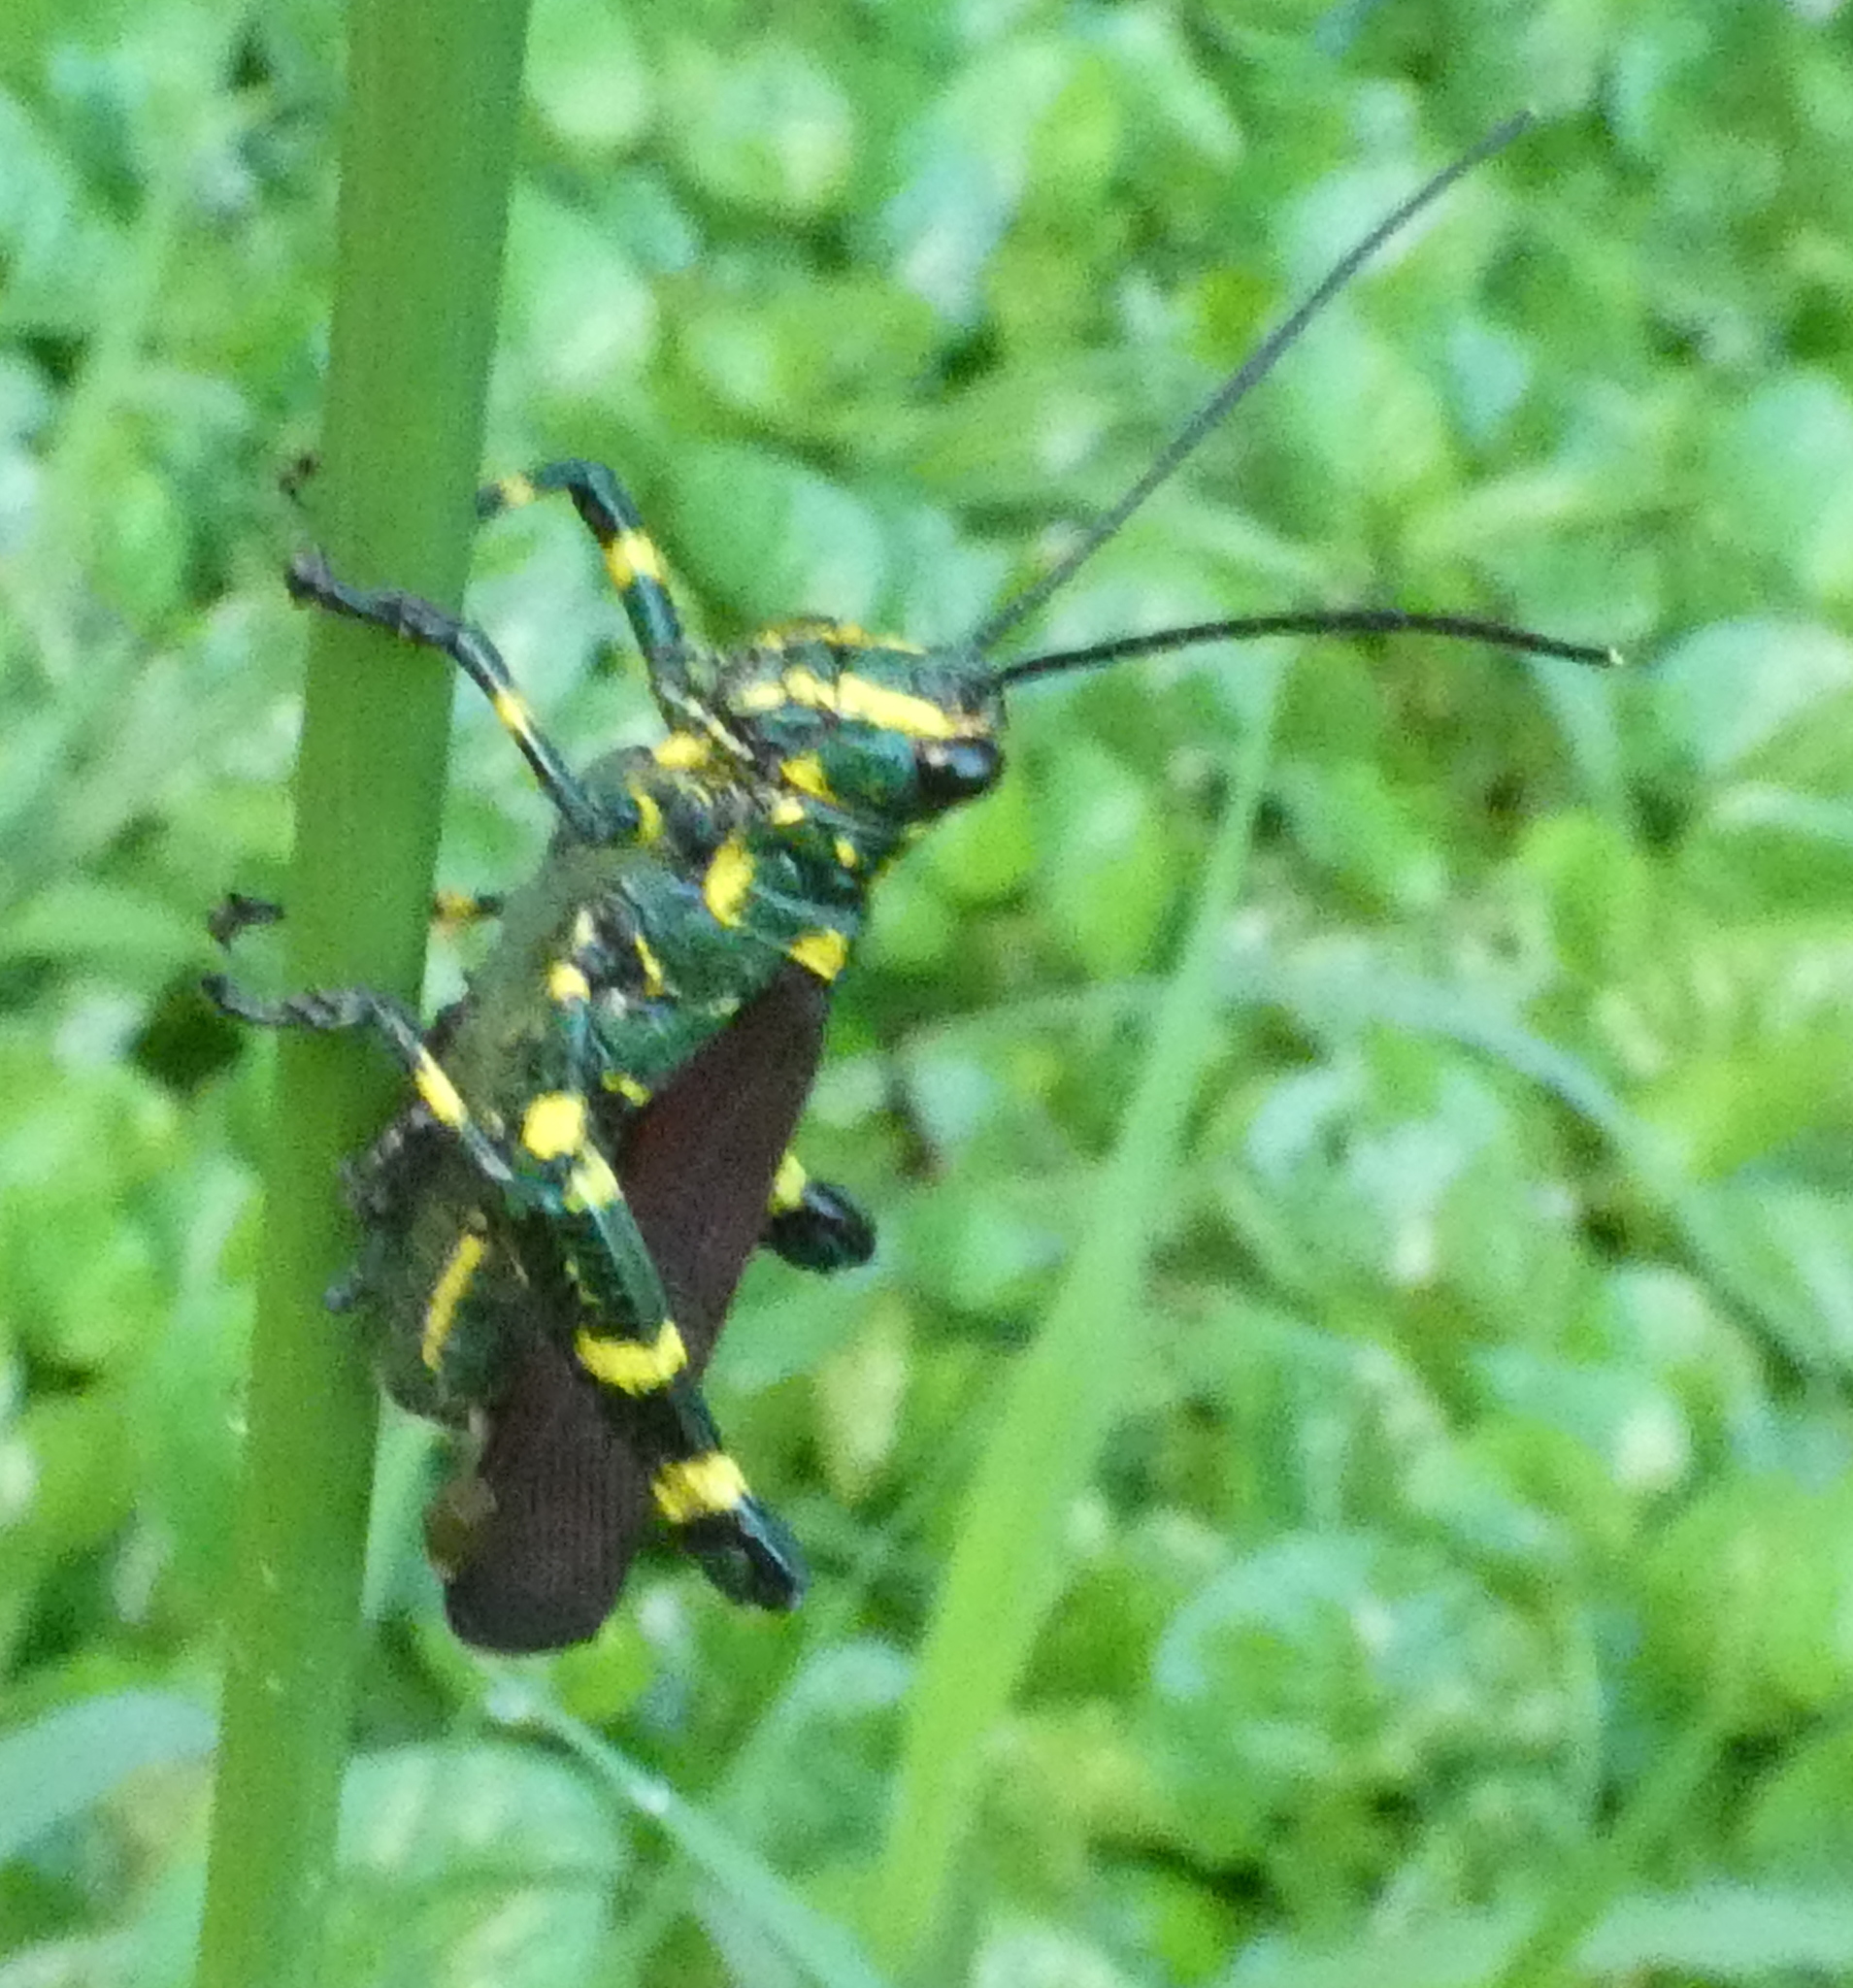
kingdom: Animalia
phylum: Arthropoda
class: Insecta
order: Orthoptera
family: Romaleidae
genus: Chromacris
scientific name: Chromacris speciosa
